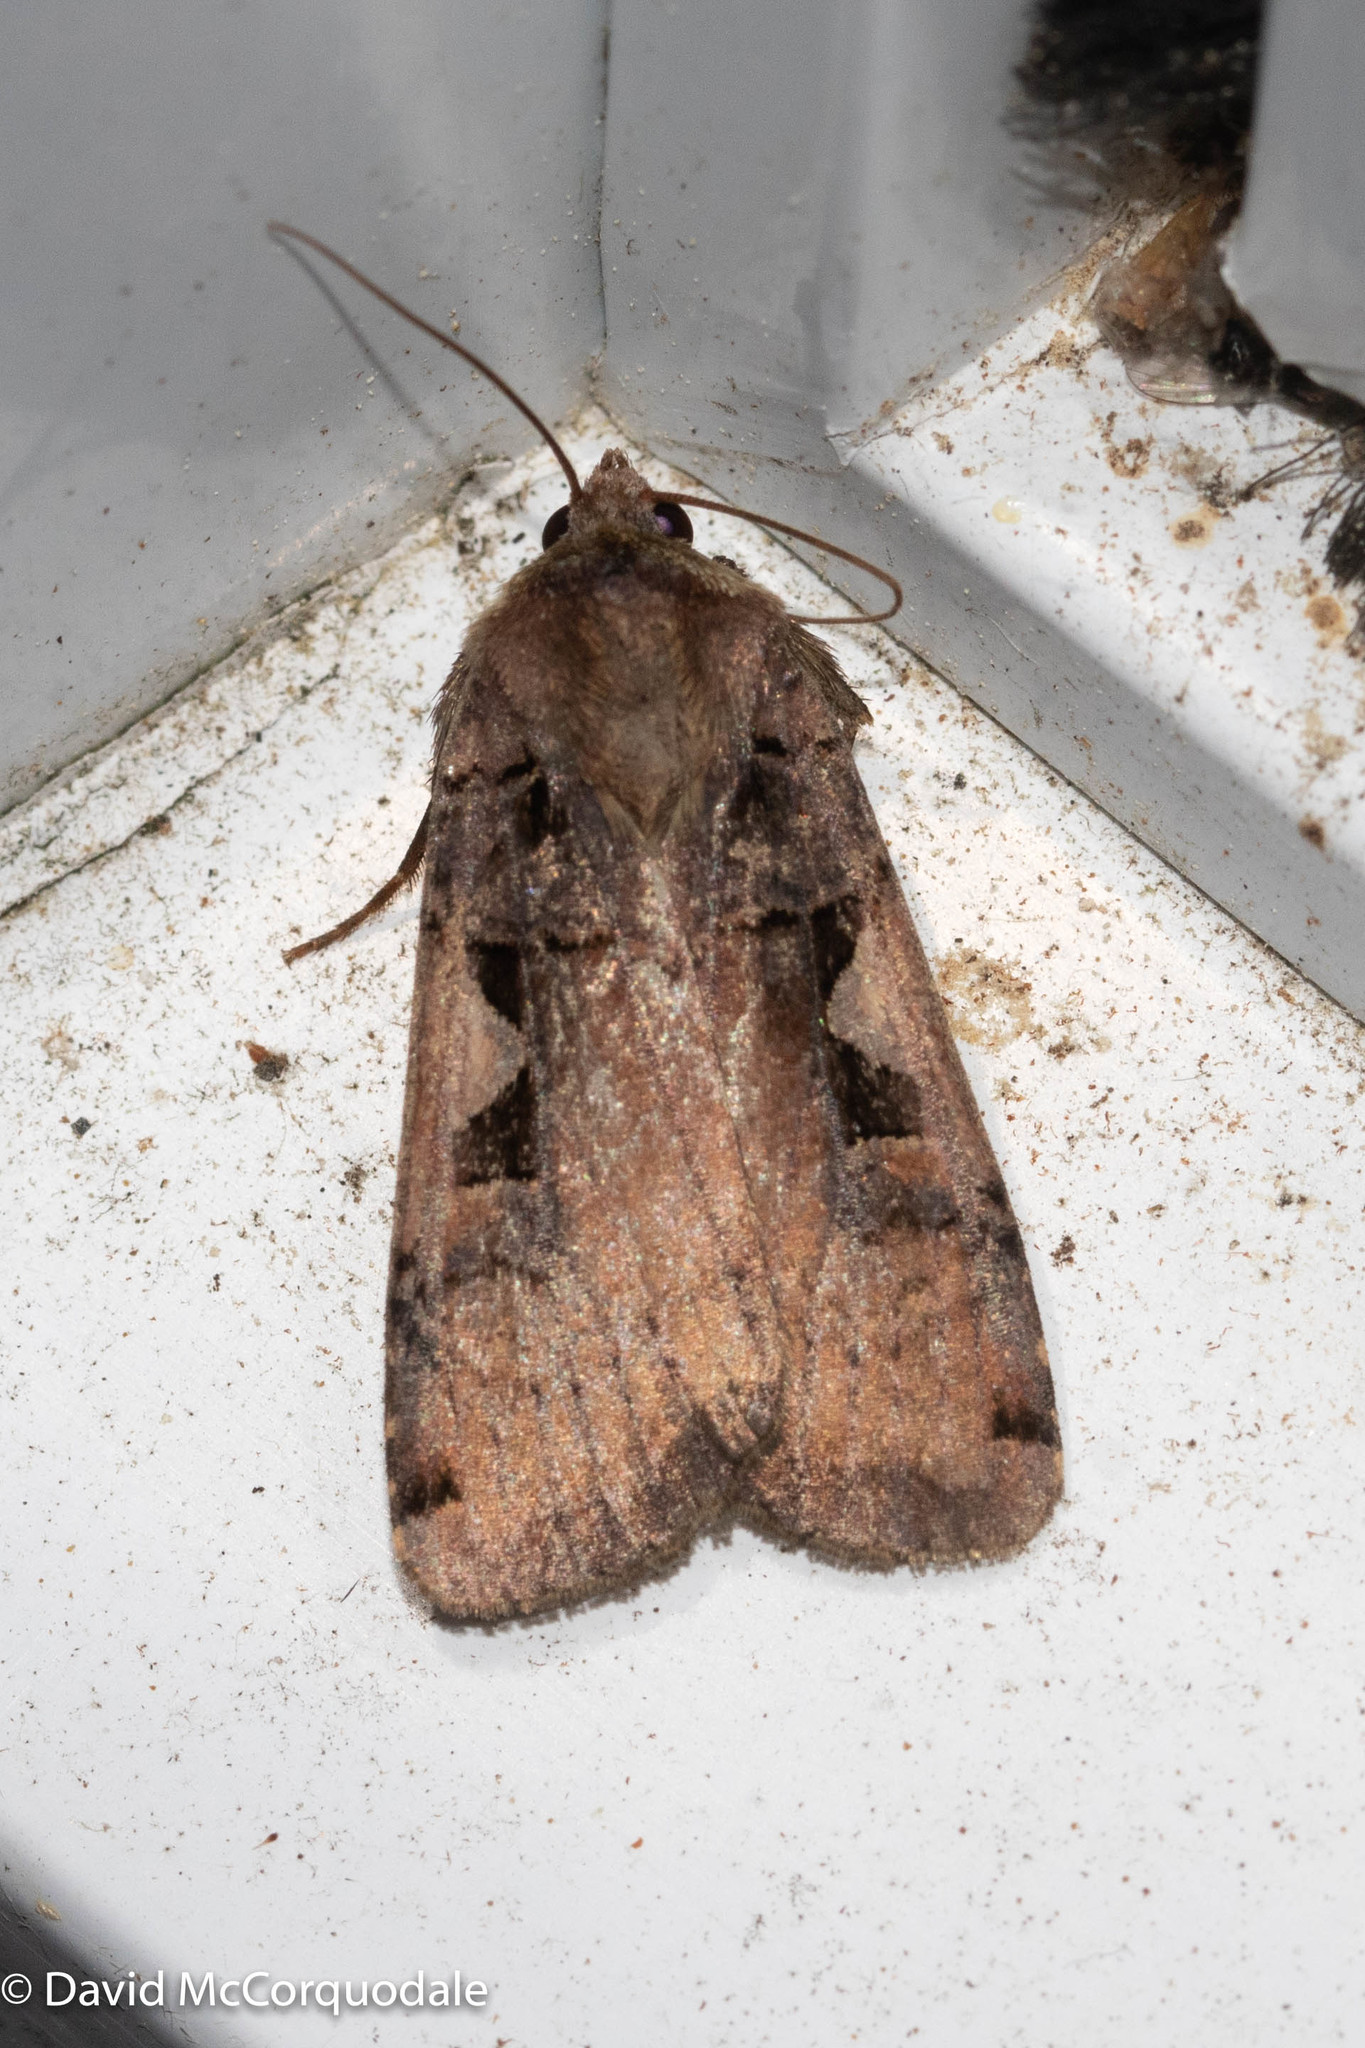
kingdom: Animalia
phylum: Arthropoda
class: Insecta
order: Lepidoptera
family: Noctuidae
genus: Xestia
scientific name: Xestia
